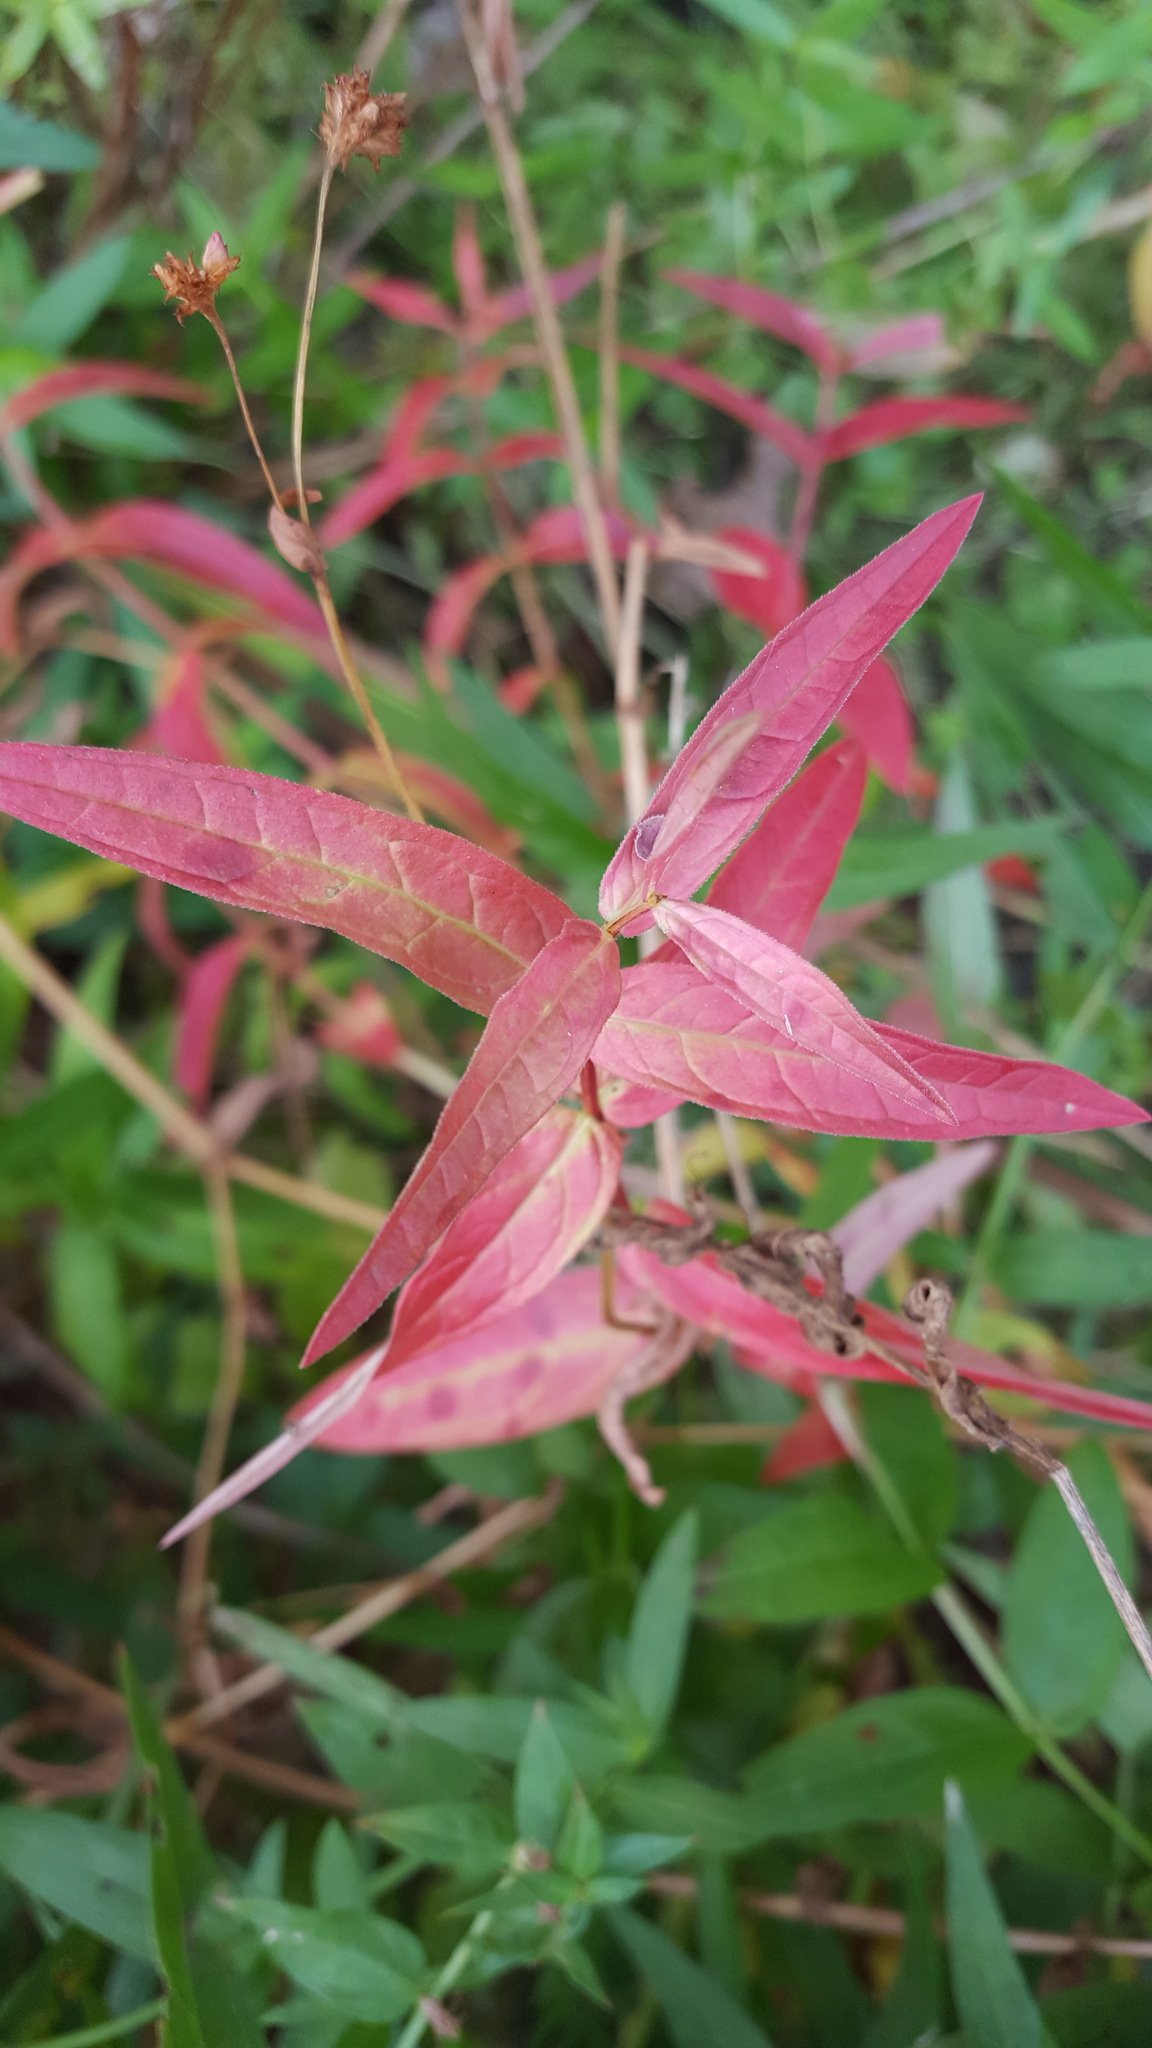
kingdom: Plantae
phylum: Tracheophyta
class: Magnoliopsida
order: Myrtales
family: Lythraceae
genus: Lythrum
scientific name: Lythrum salicaria
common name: Purple loosestrife
